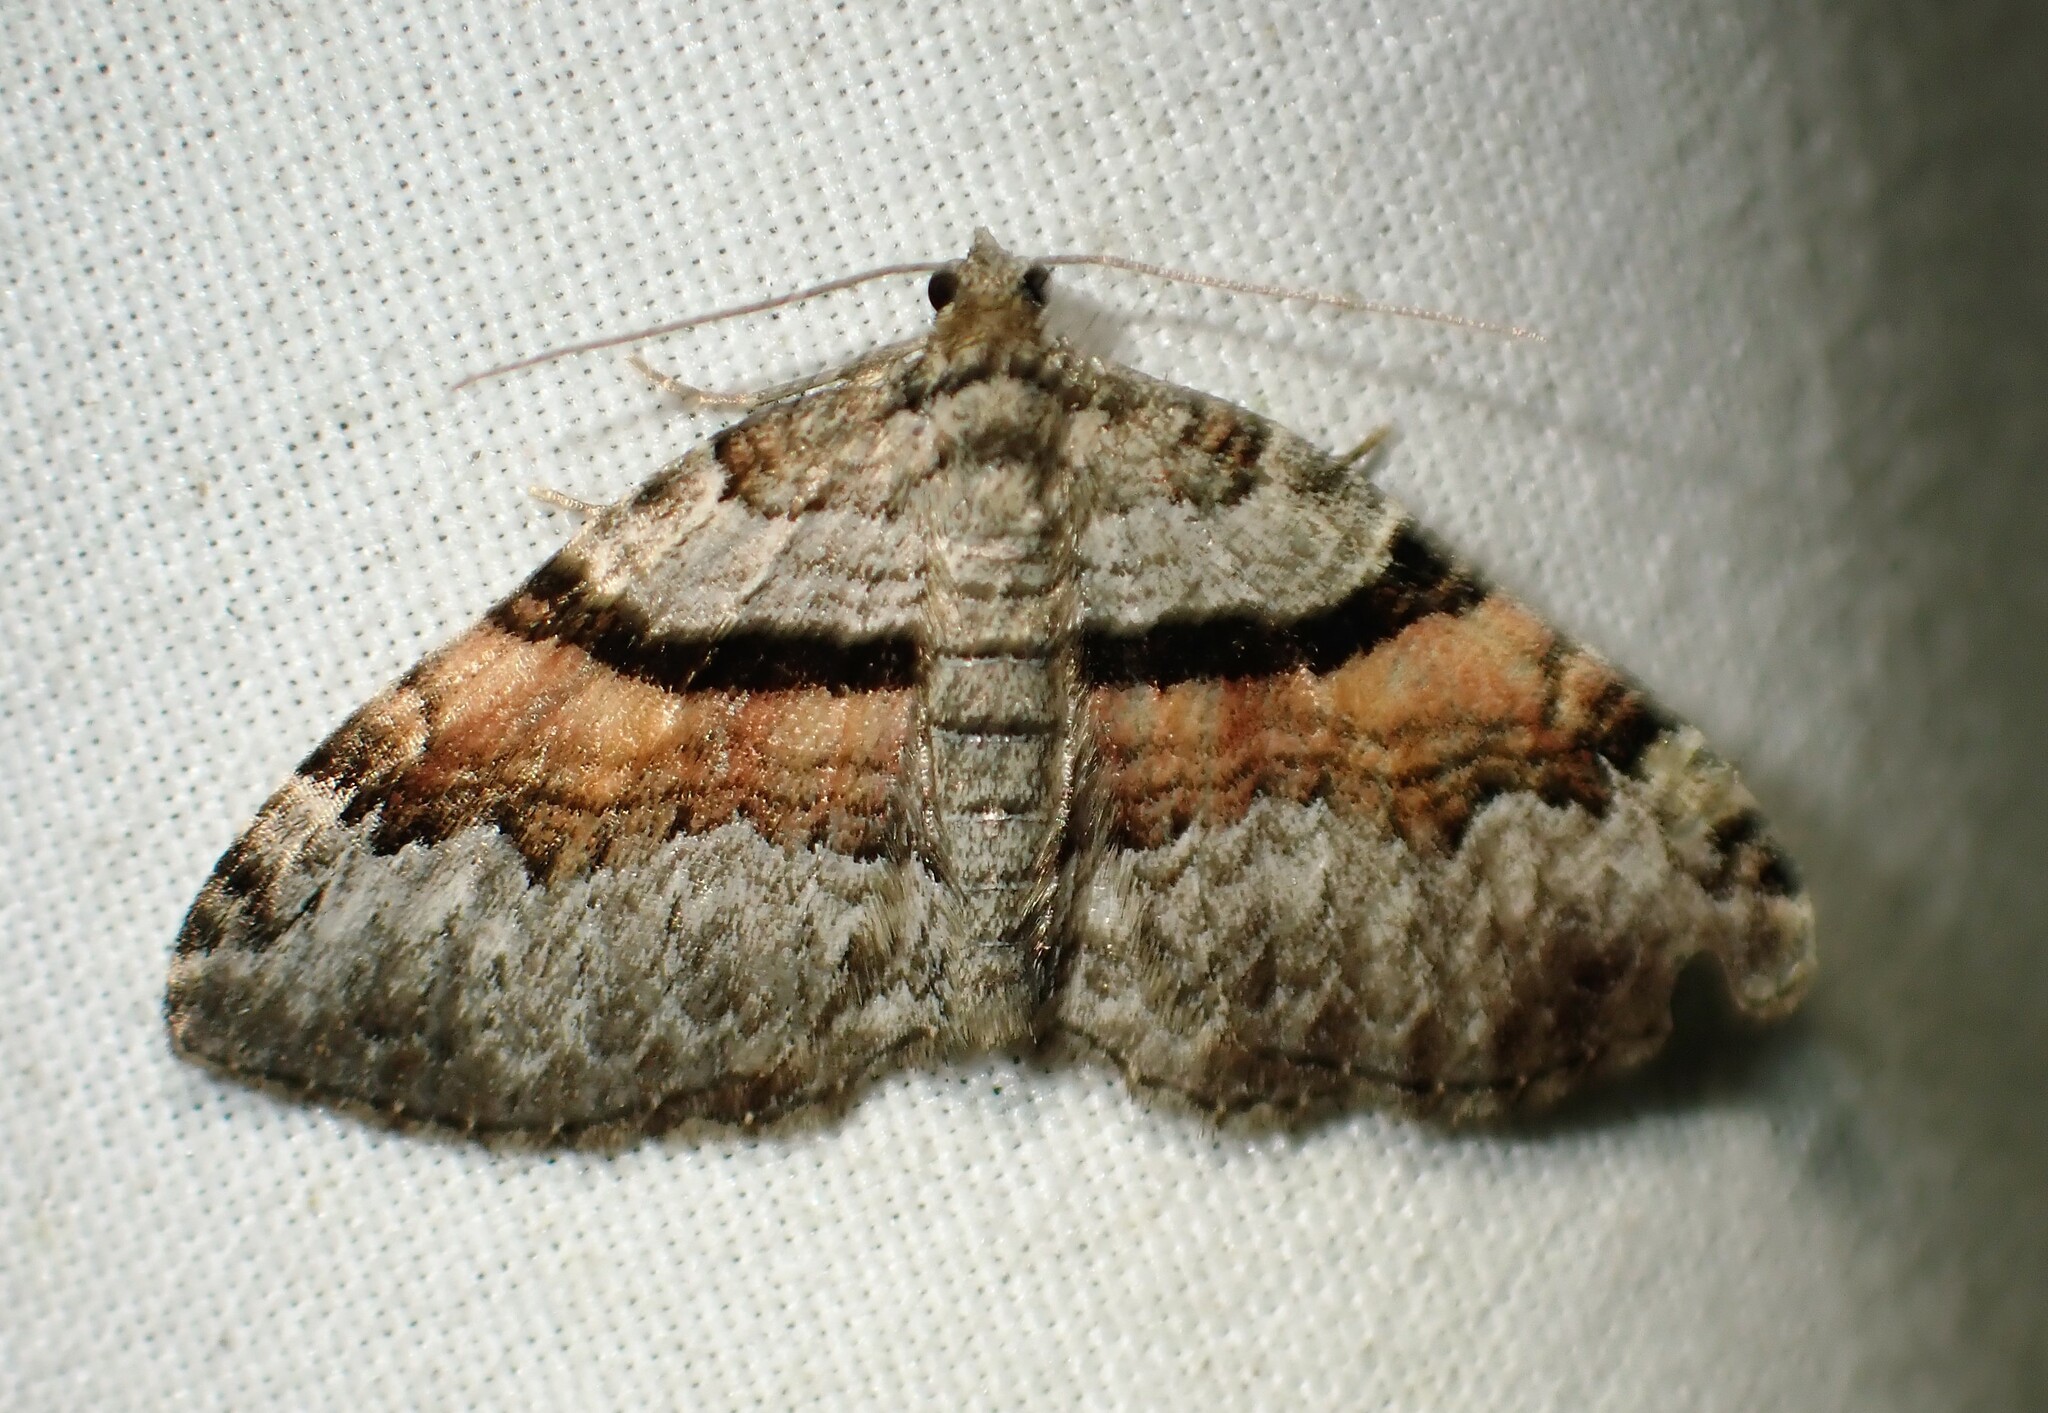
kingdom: Animalia
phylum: Arthropoda
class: Insecta
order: Lepidoptera
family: Geometridae
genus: Xanthorhoe
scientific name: Xanthorhoe packardata
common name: Packard's carpet
